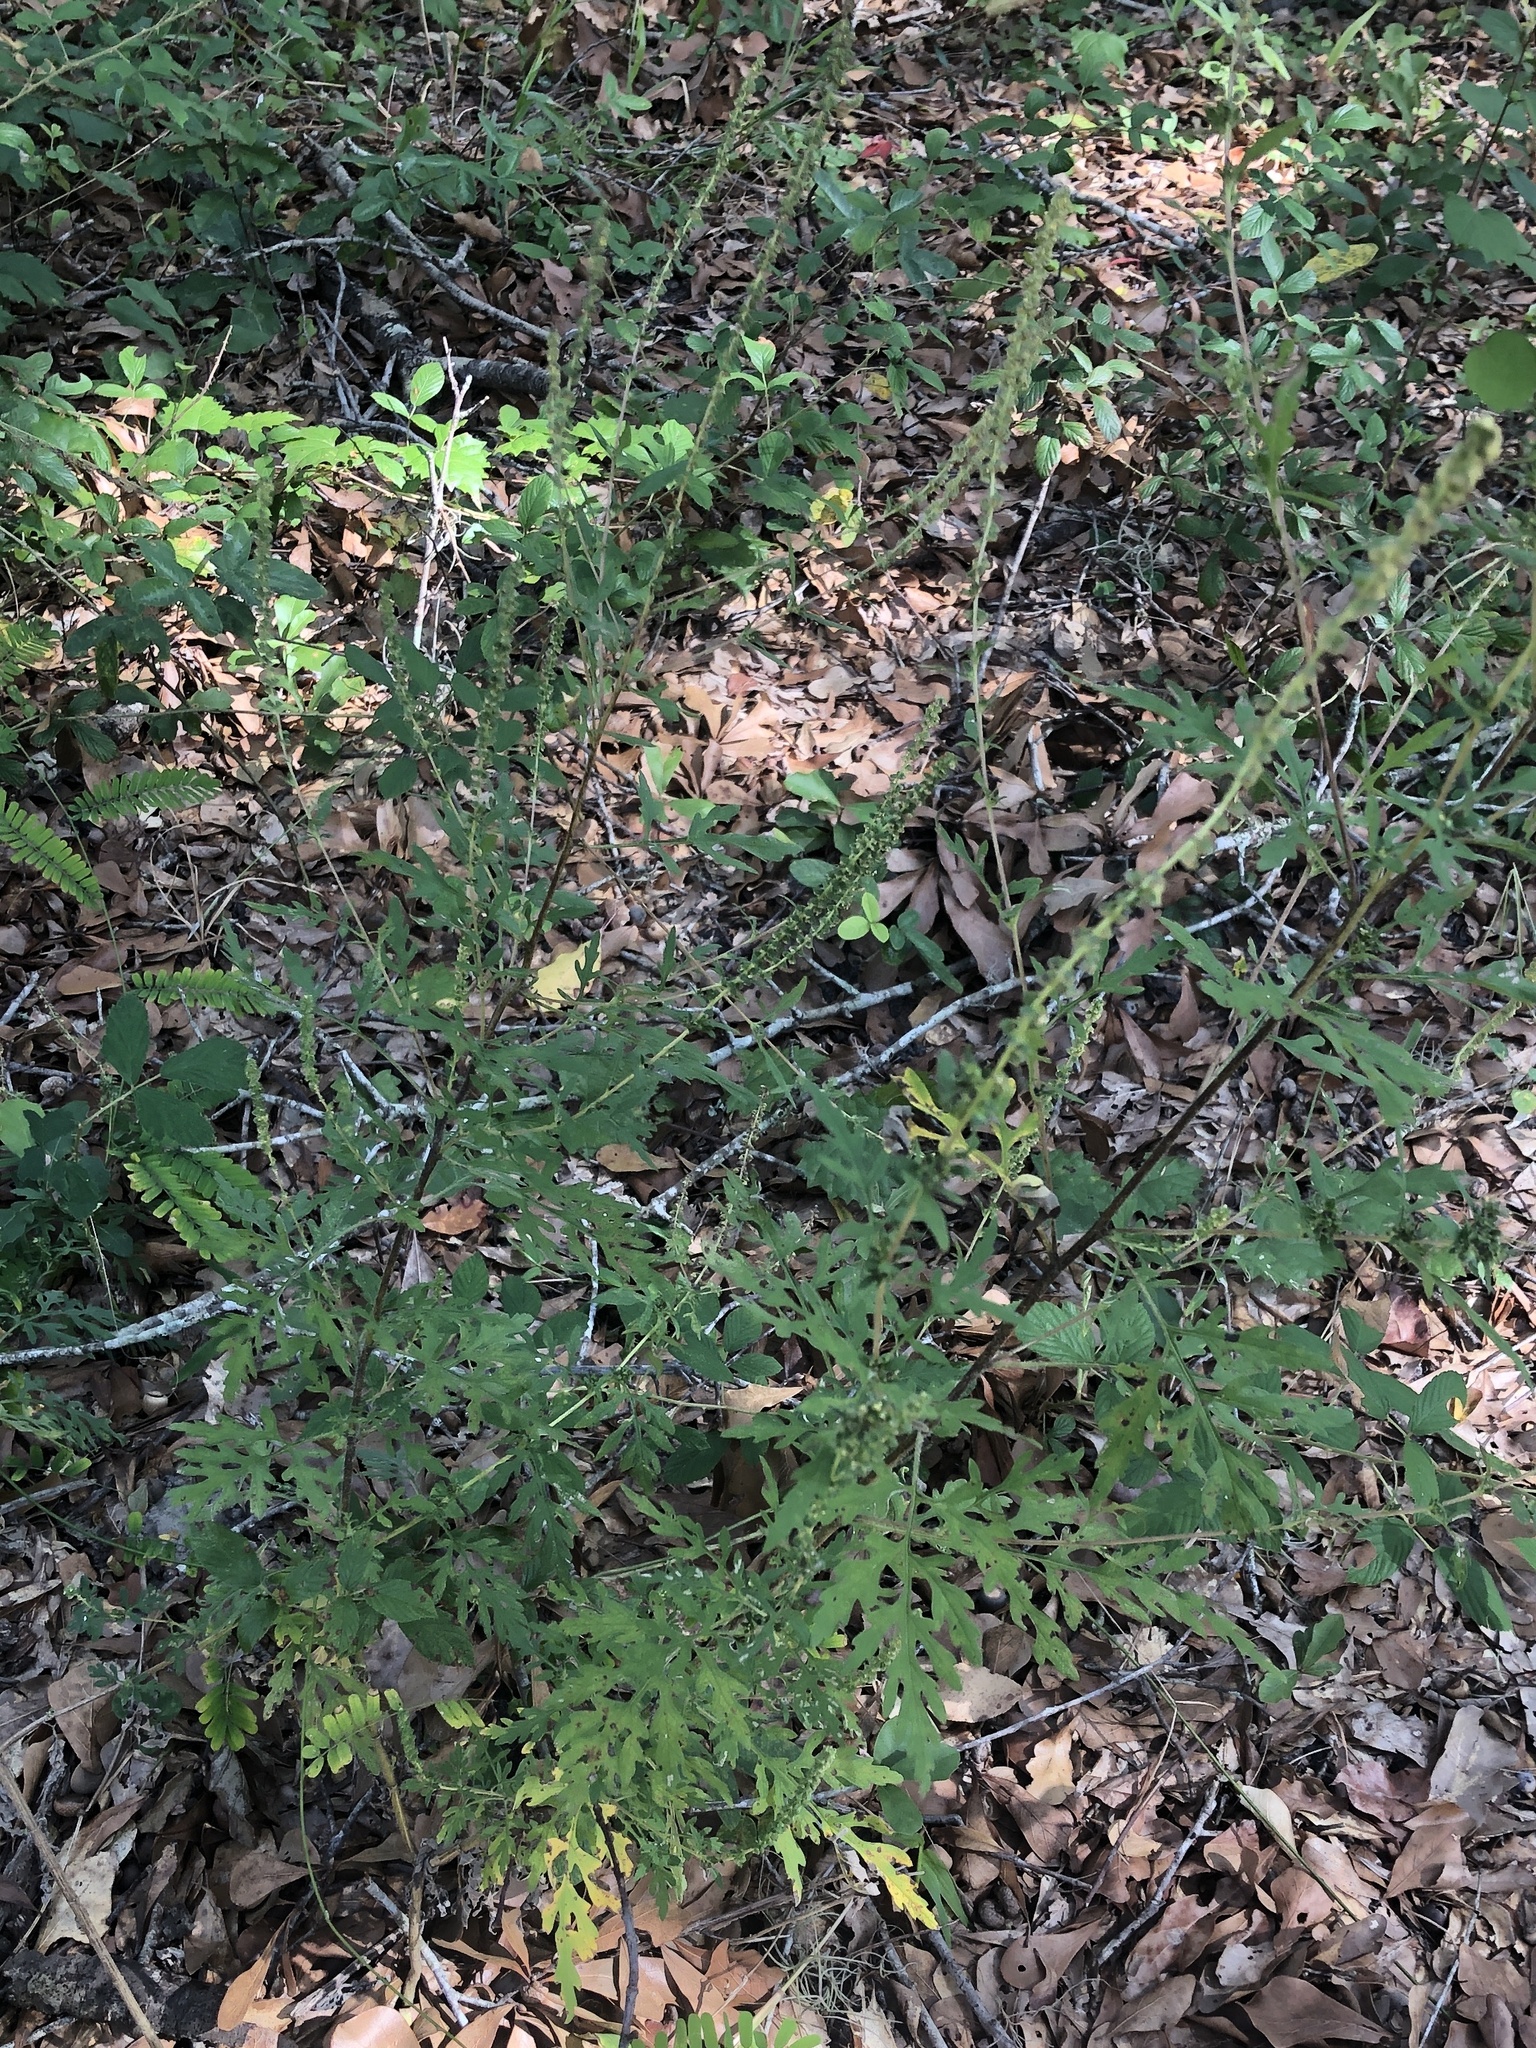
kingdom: Plantae
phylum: Tracheophyta
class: Magnoliopsida
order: Asterales
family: Asteraceae
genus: Ambrosia
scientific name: Ambrosia artemisiifolia
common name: Annual ragweed
